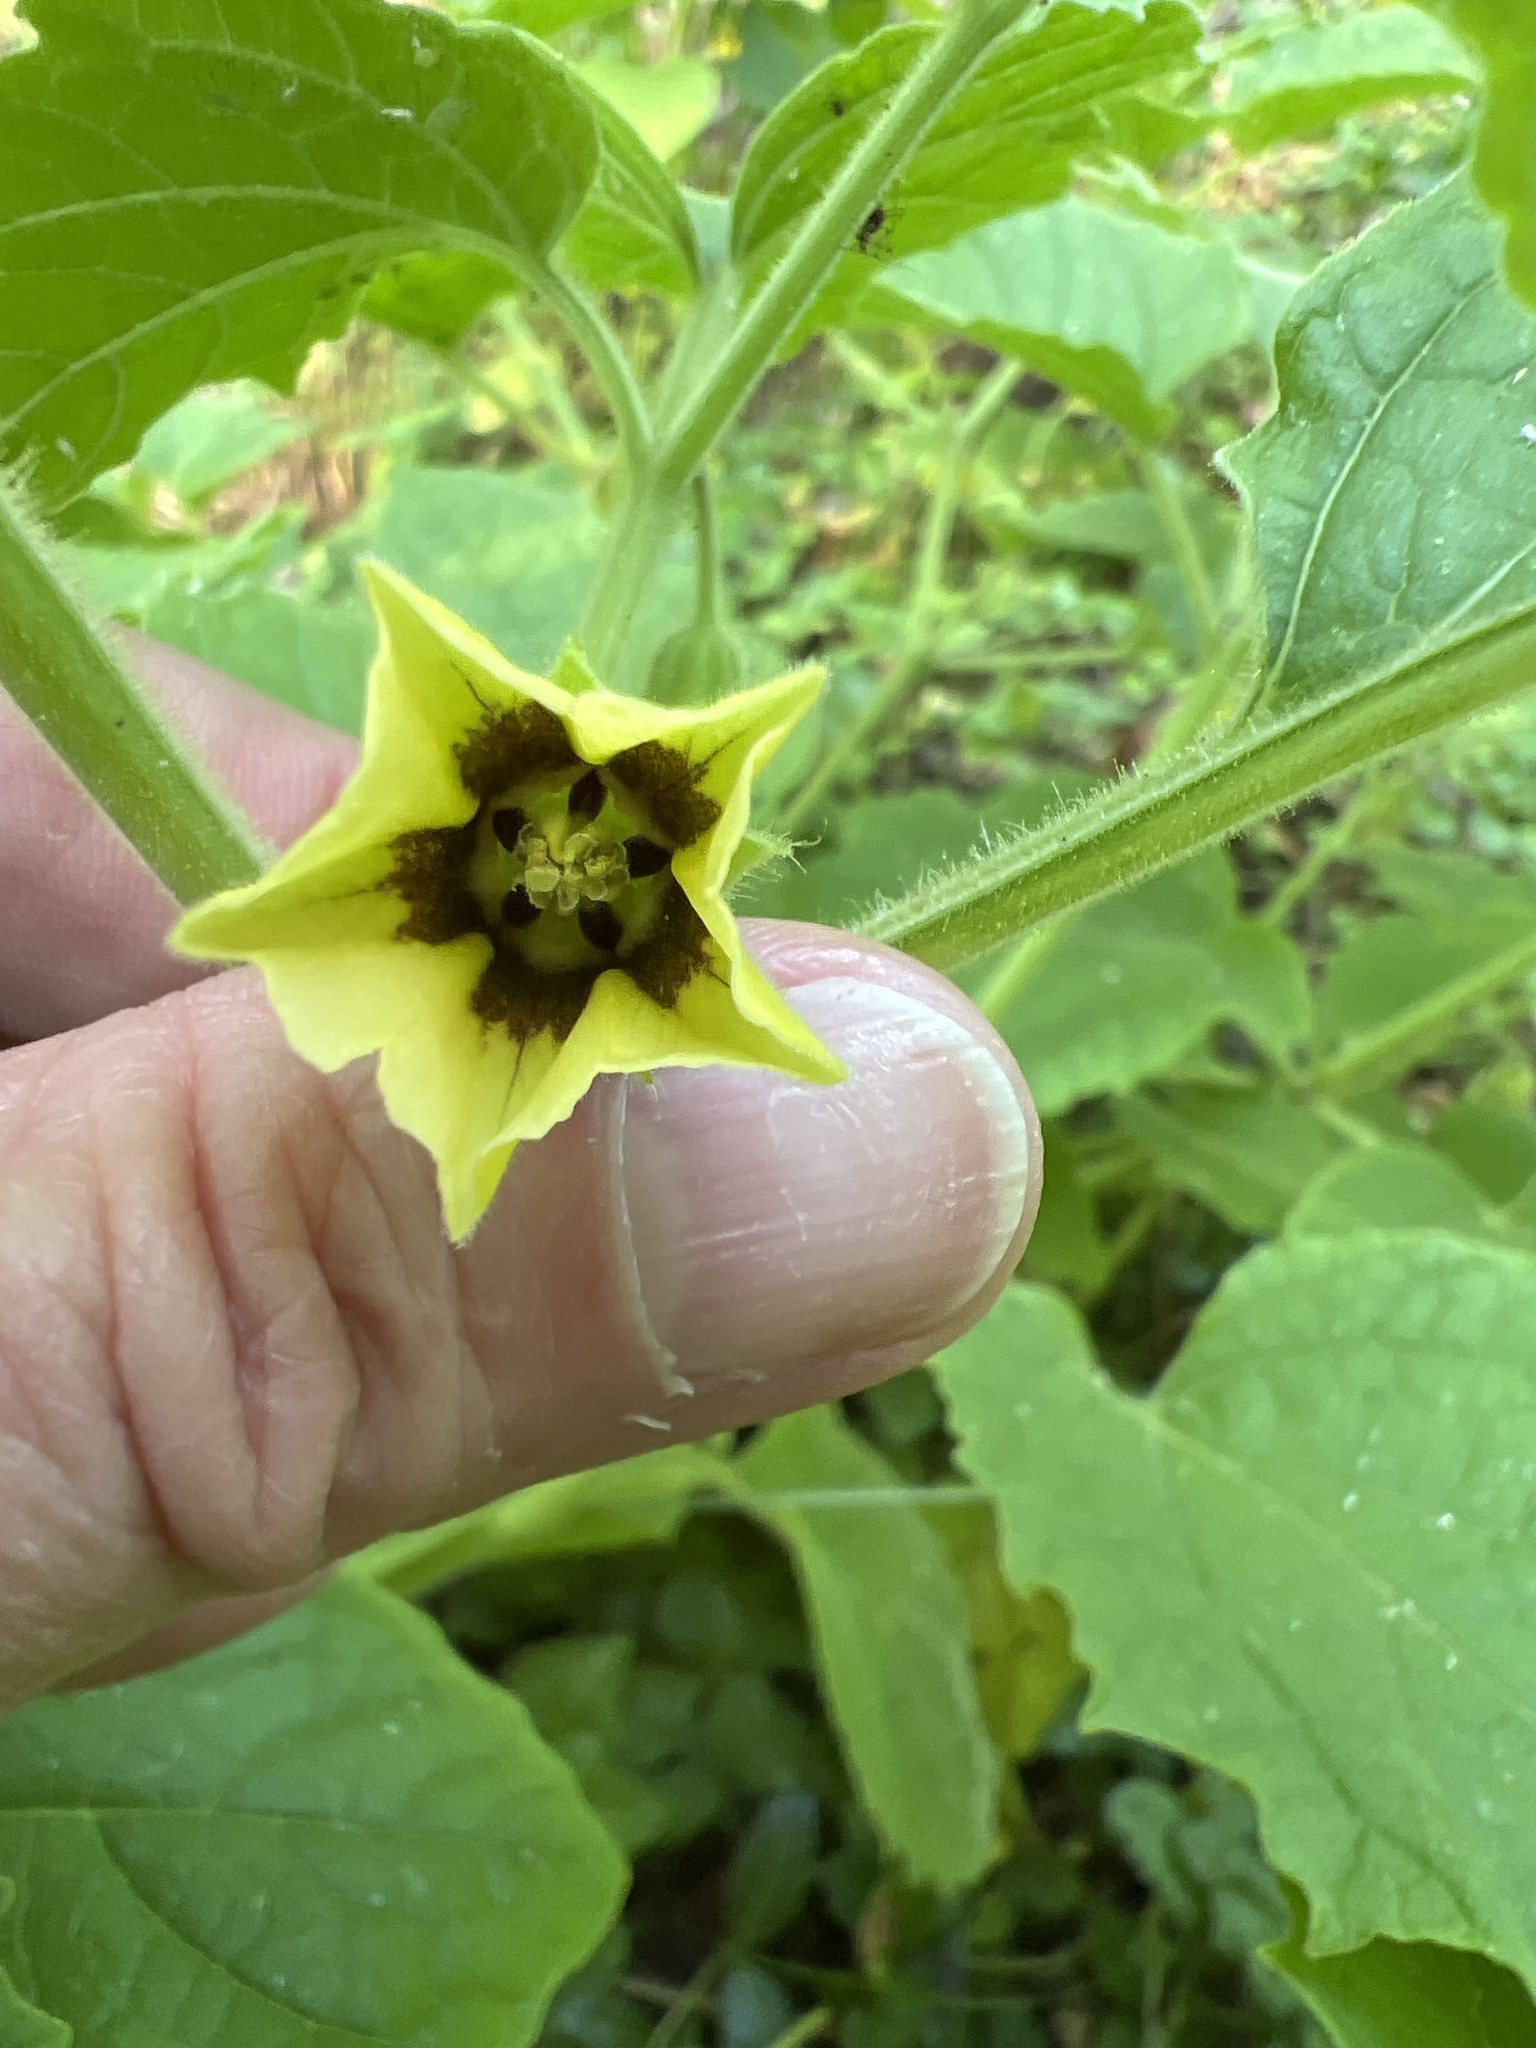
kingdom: Plantae
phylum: Tracheophyta
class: Magnoliopsida
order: Solanales
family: Solanaceae
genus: Physalis
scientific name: Physalis heterophylla
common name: Clammy ground-cherry
